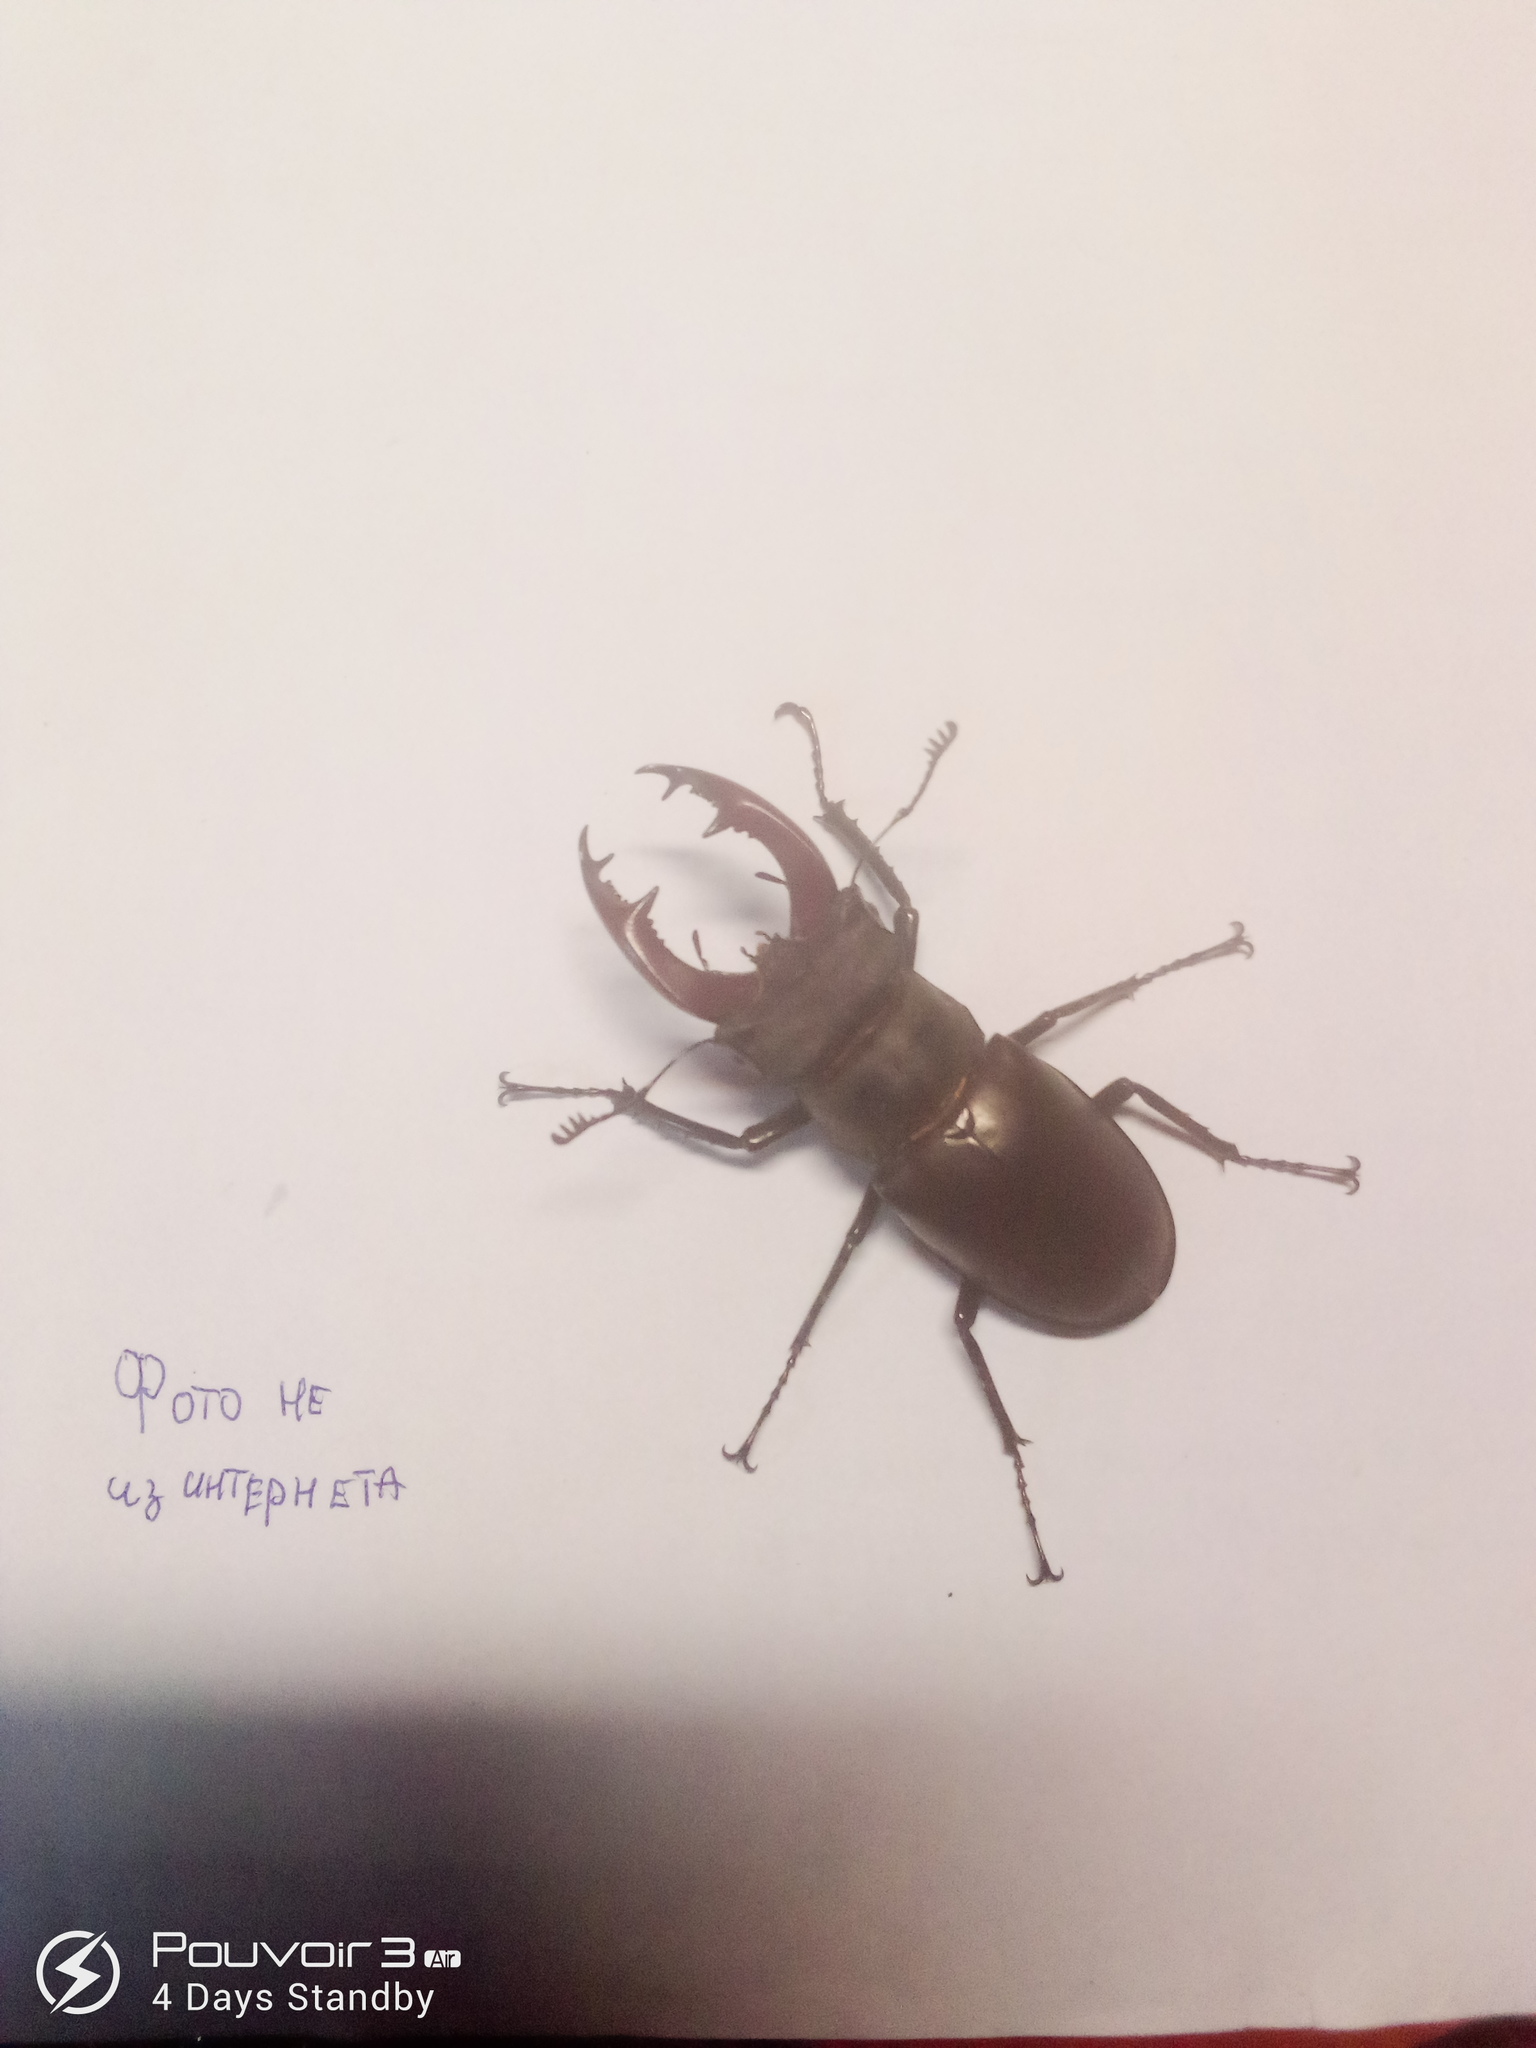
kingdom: Animalia
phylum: Arthropoda
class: Insecta
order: Coleoptera
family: Lucanidae
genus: Lucanus
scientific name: Lucanus cervus
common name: Stag beetle
